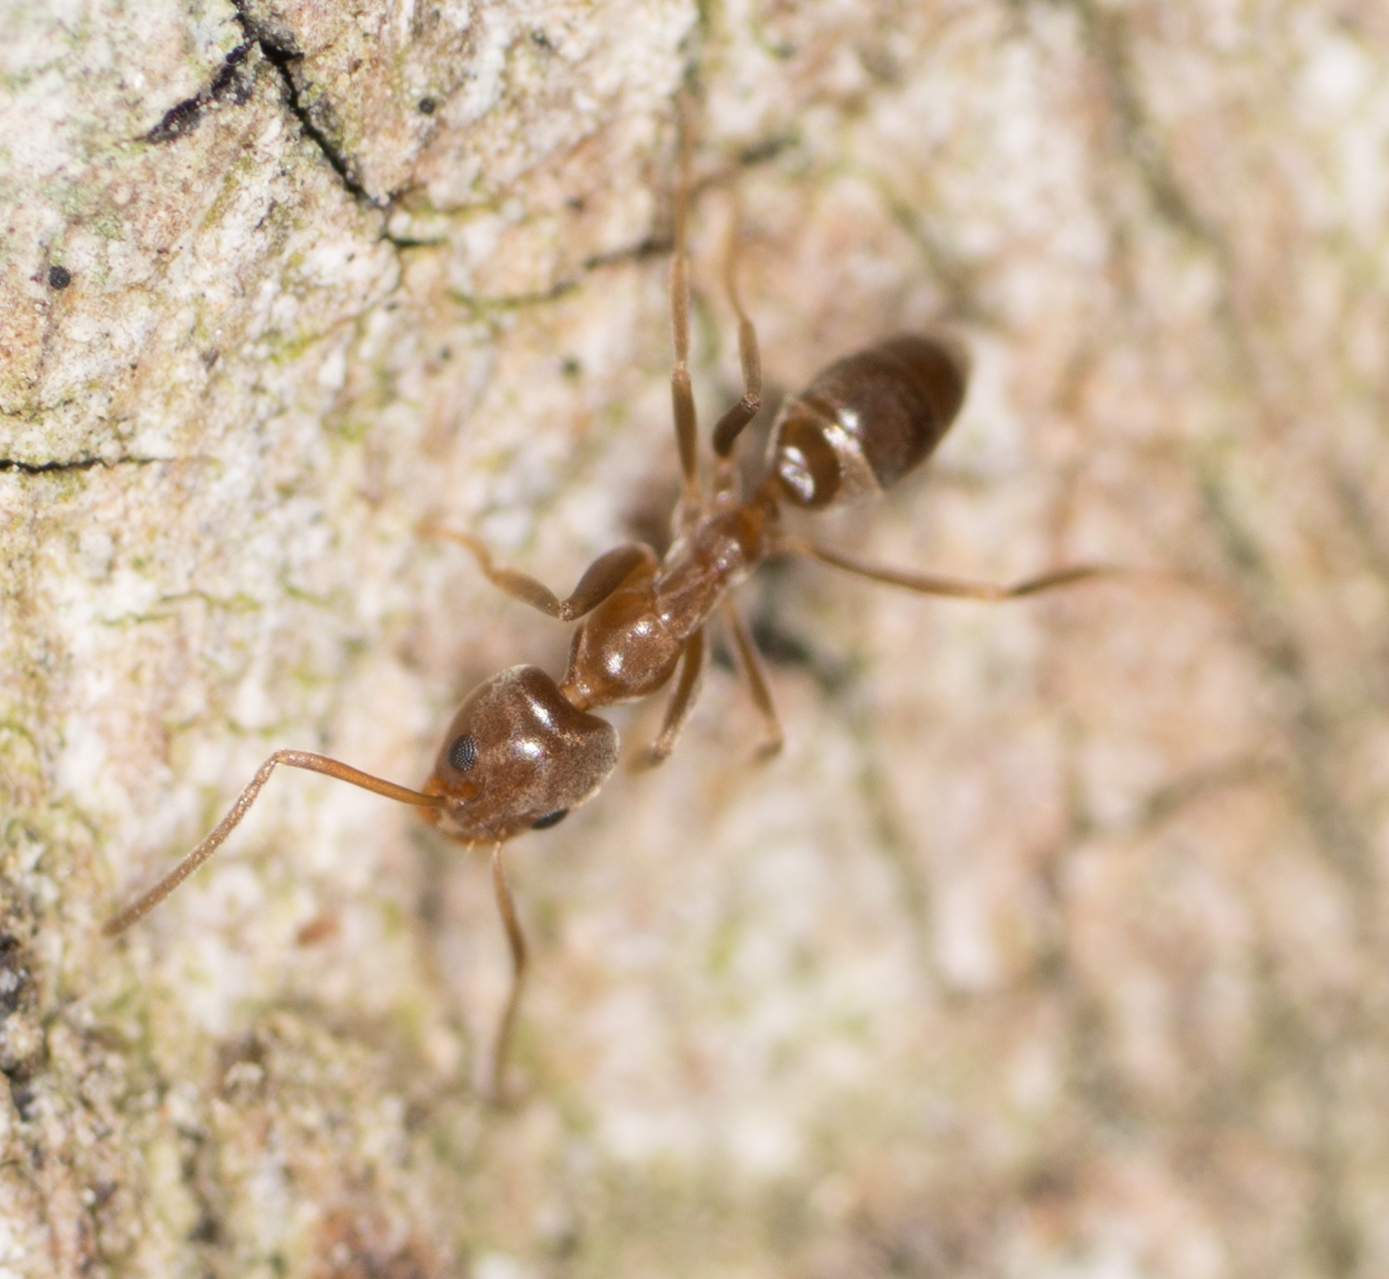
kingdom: Animalia
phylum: Arthropoda
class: Insecta
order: Hymenoptera
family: Formicidae
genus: Linepithema
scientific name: Linepithema humile
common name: Argentine ant
